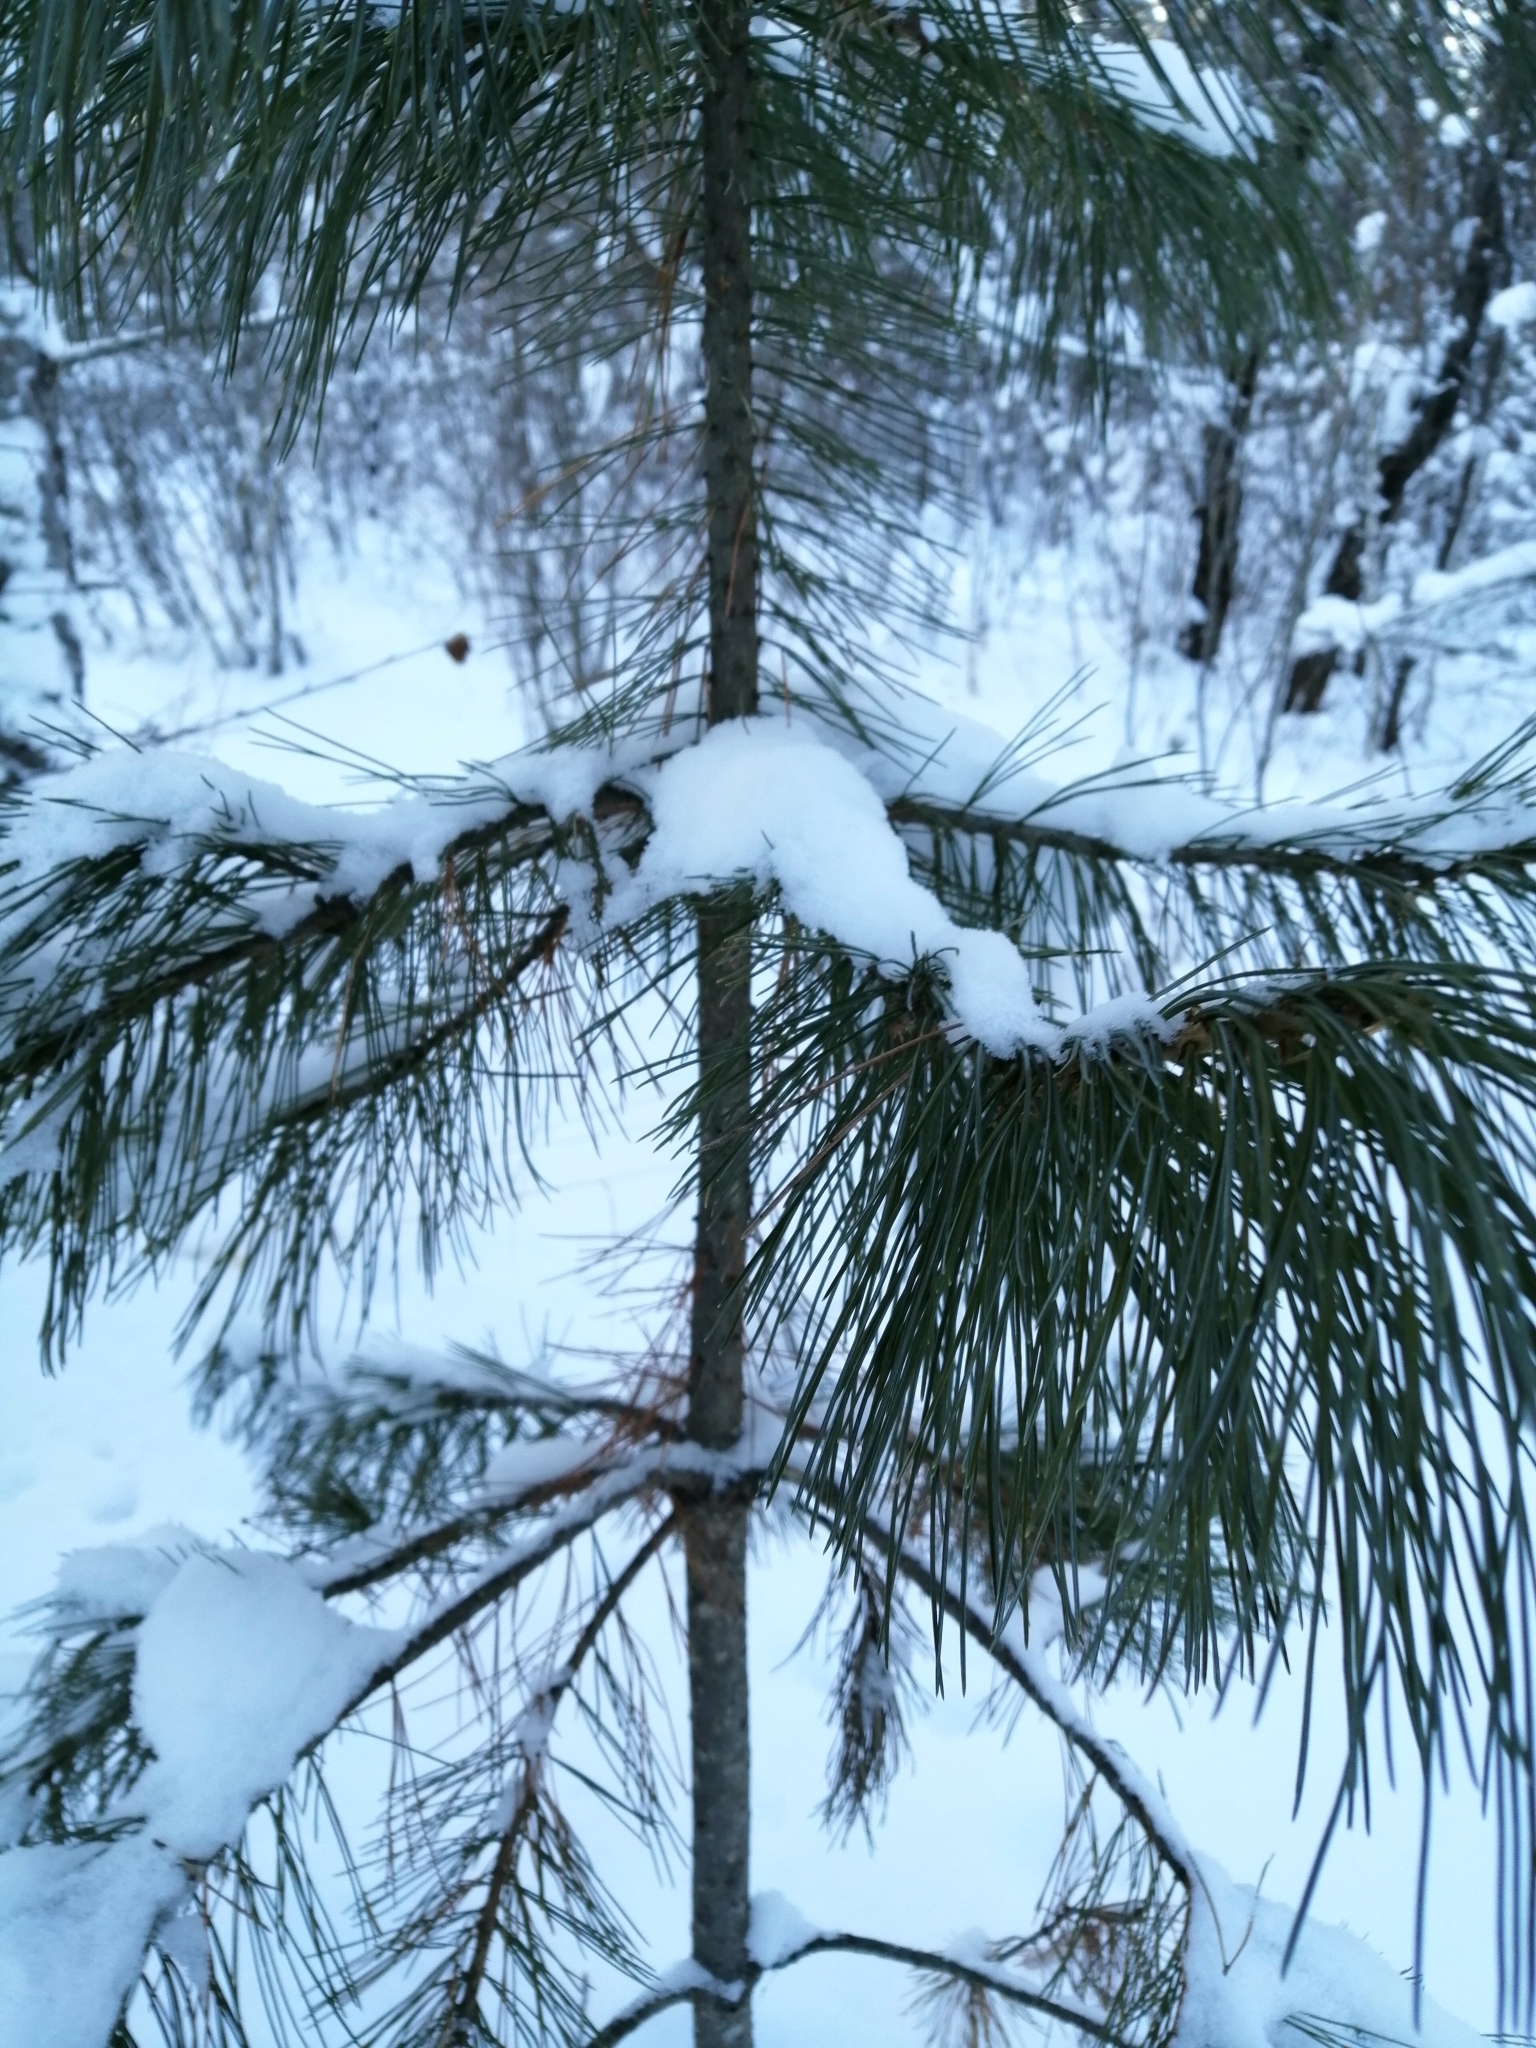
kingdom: Plantae
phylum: Tracheophyta
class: Pinopsida
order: Pinales
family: Pinaceae
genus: Pinus
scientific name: Pinus sibirica
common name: Siberian pine
